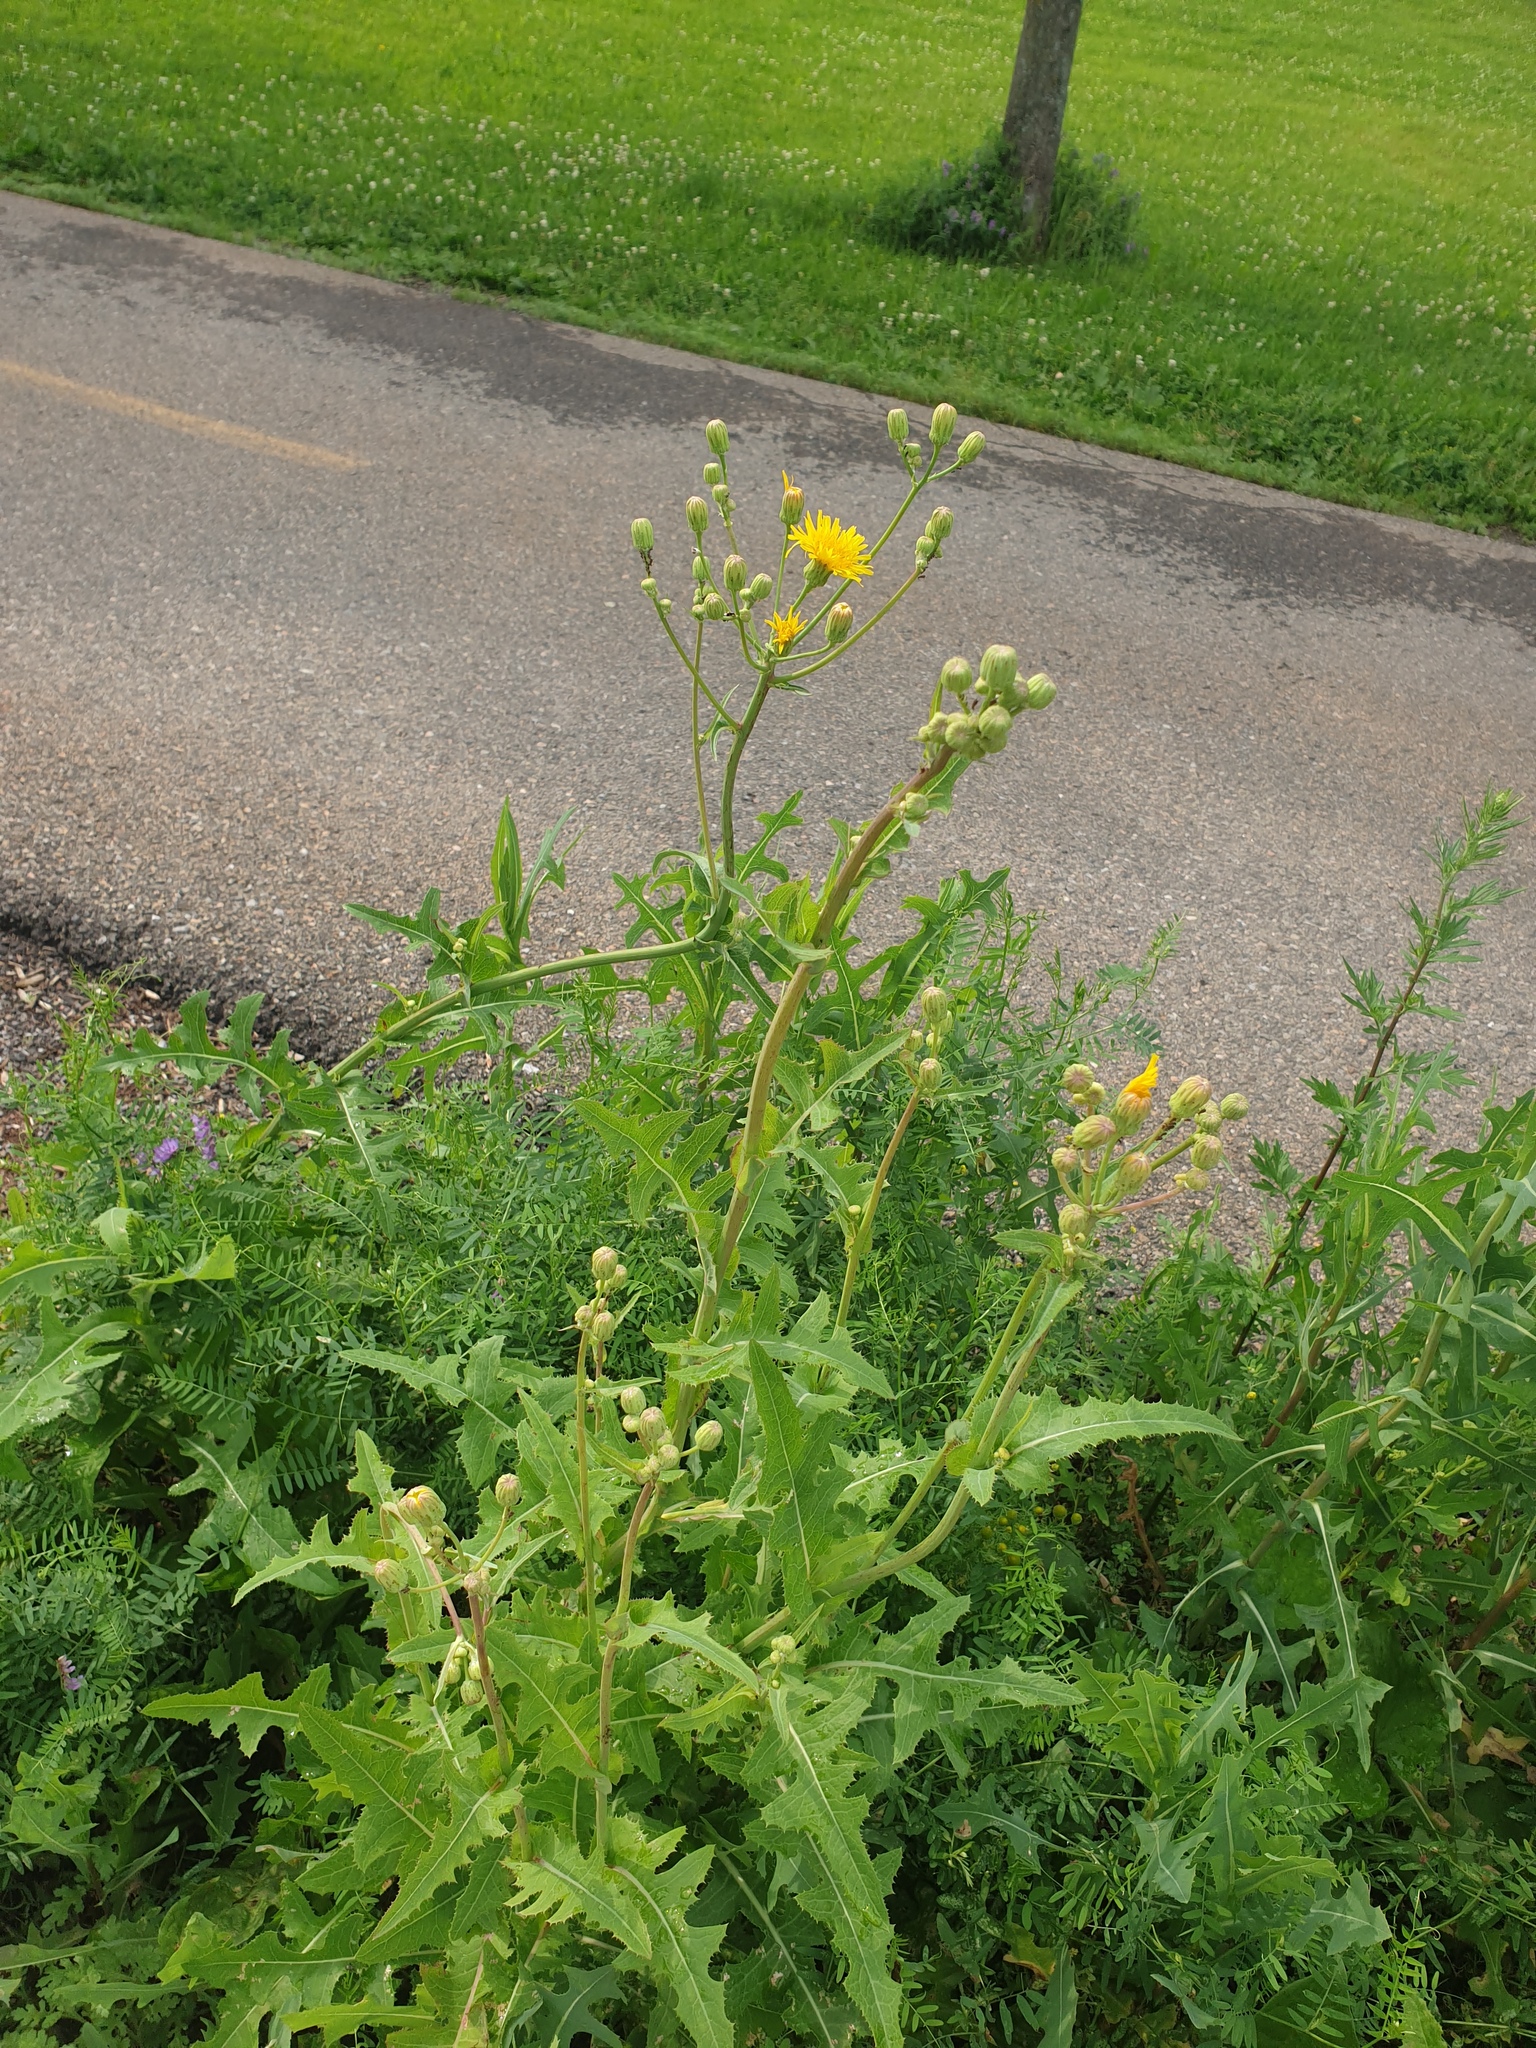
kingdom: Plantae
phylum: Tracheophyta
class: Magnoliopsida
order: Asterales
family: Asteraceae
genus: Sonchus
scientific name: Sonchus arvensis
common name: Perennial sow-thistle
